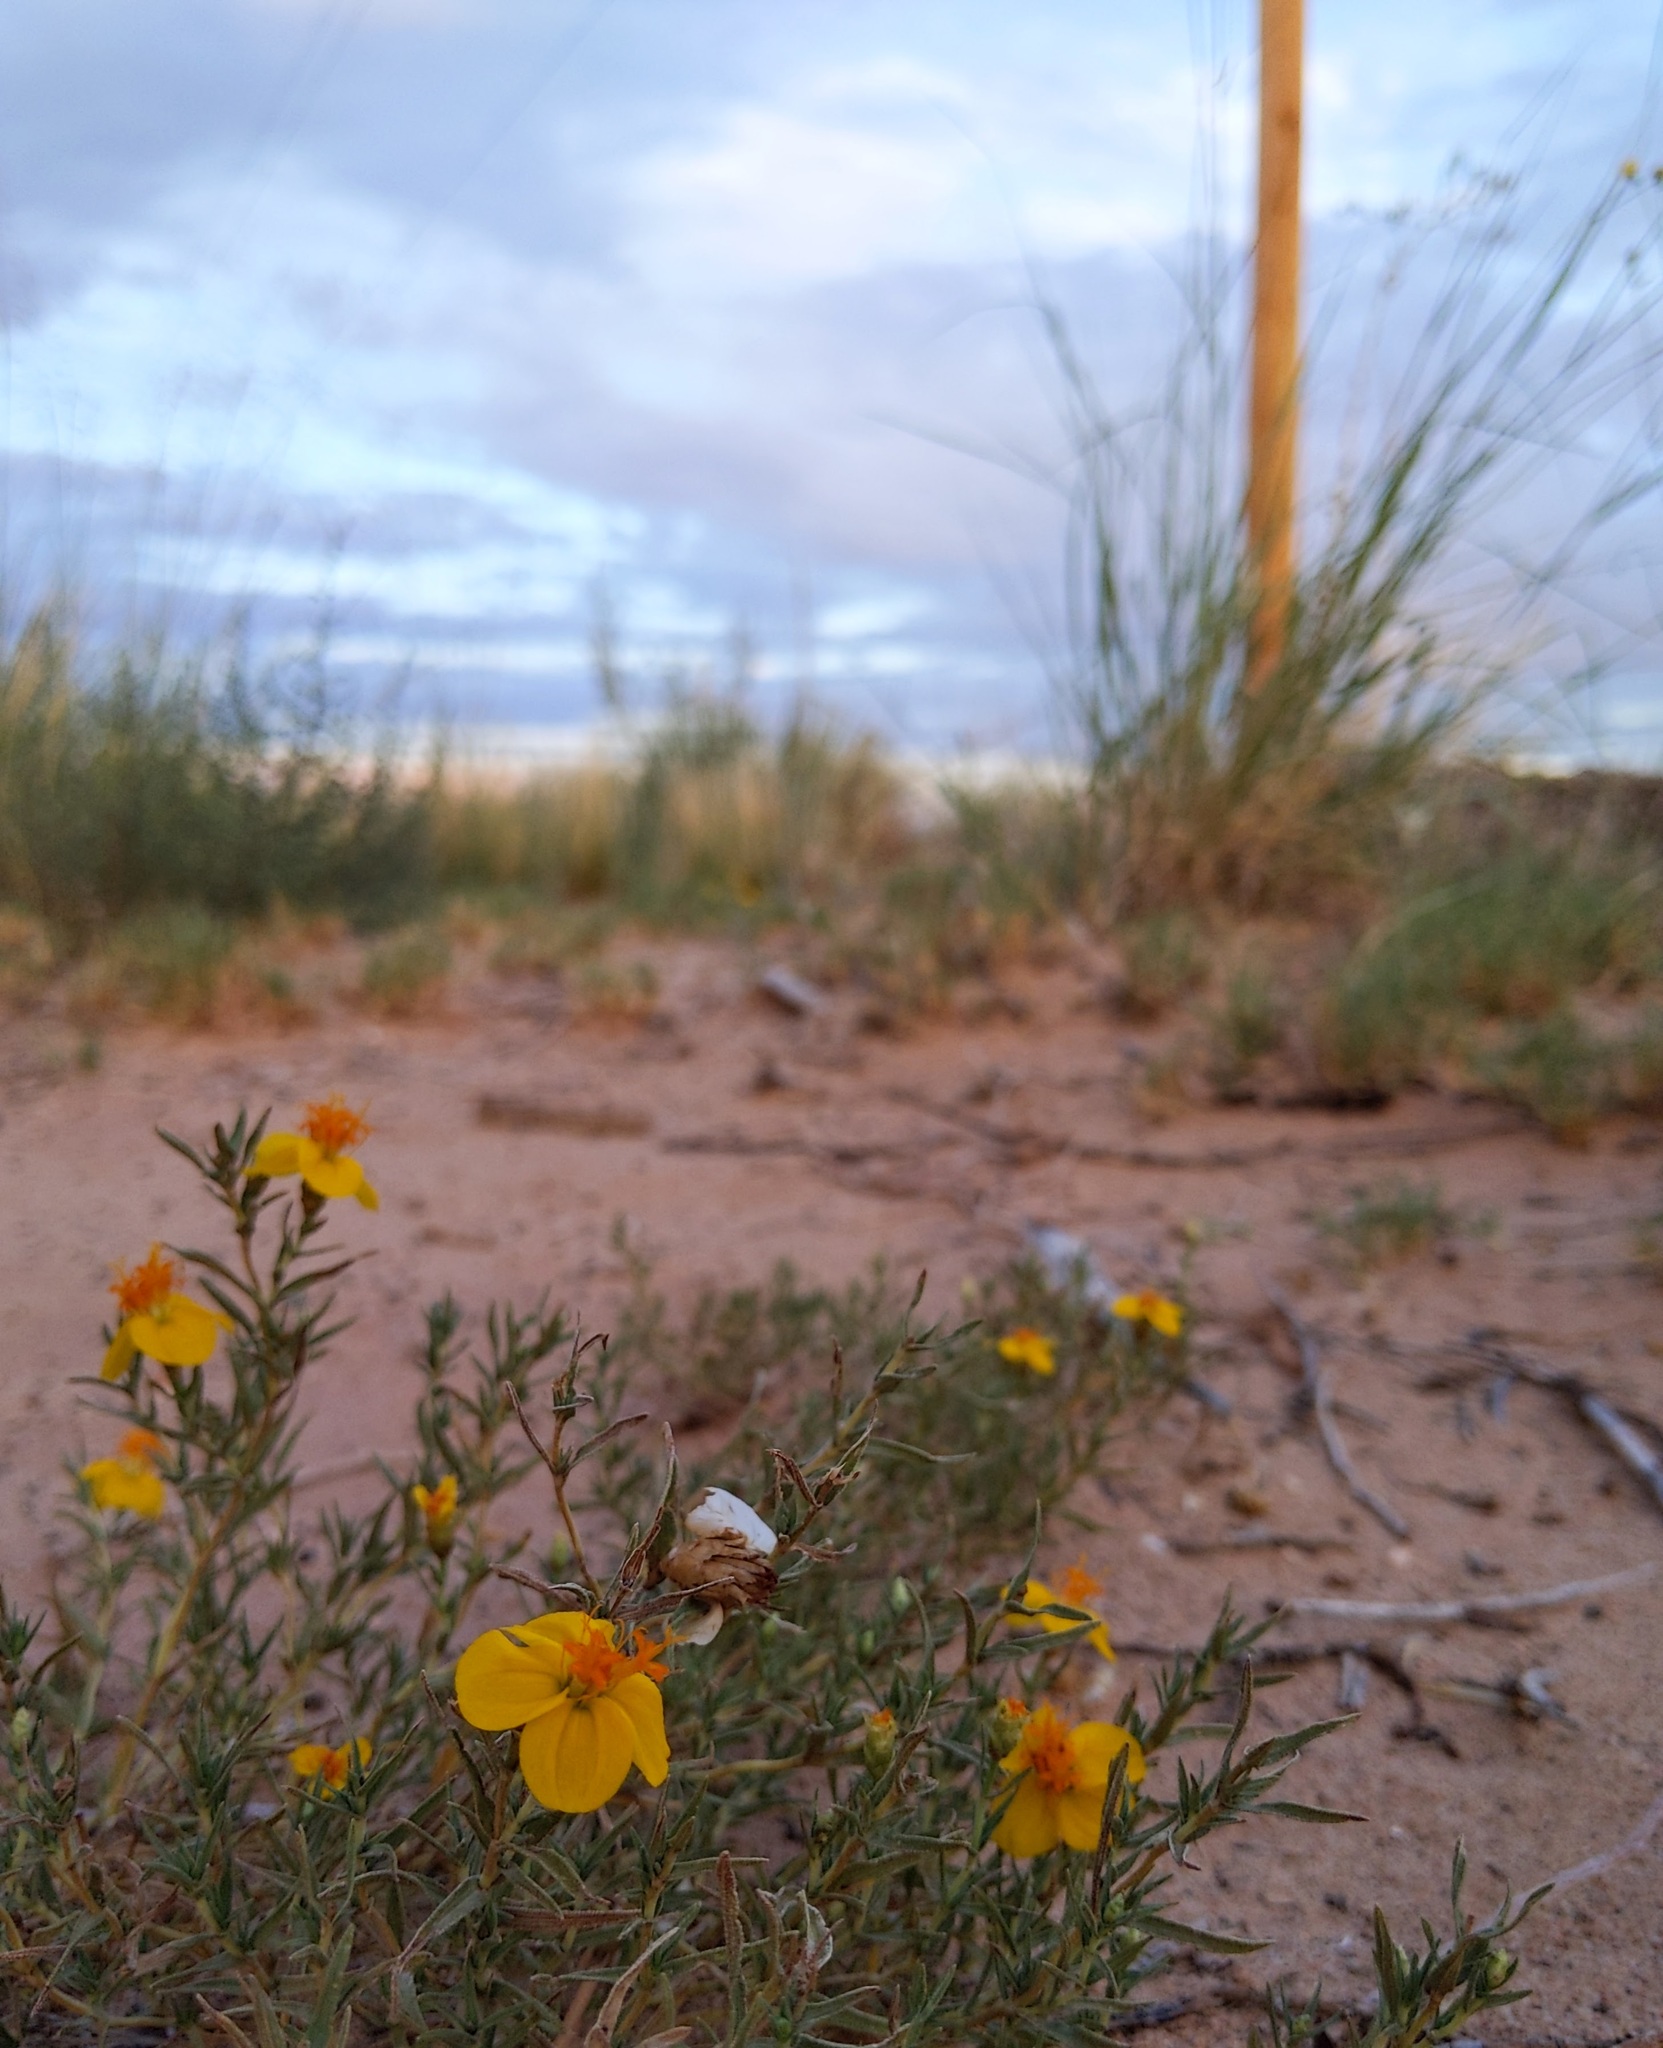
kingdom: Plantae
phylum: Tracheophyta
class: Magnoliopsida
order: Asterales
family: Asteraceae
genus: Zinnia
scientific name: Zinnia grandiflora
